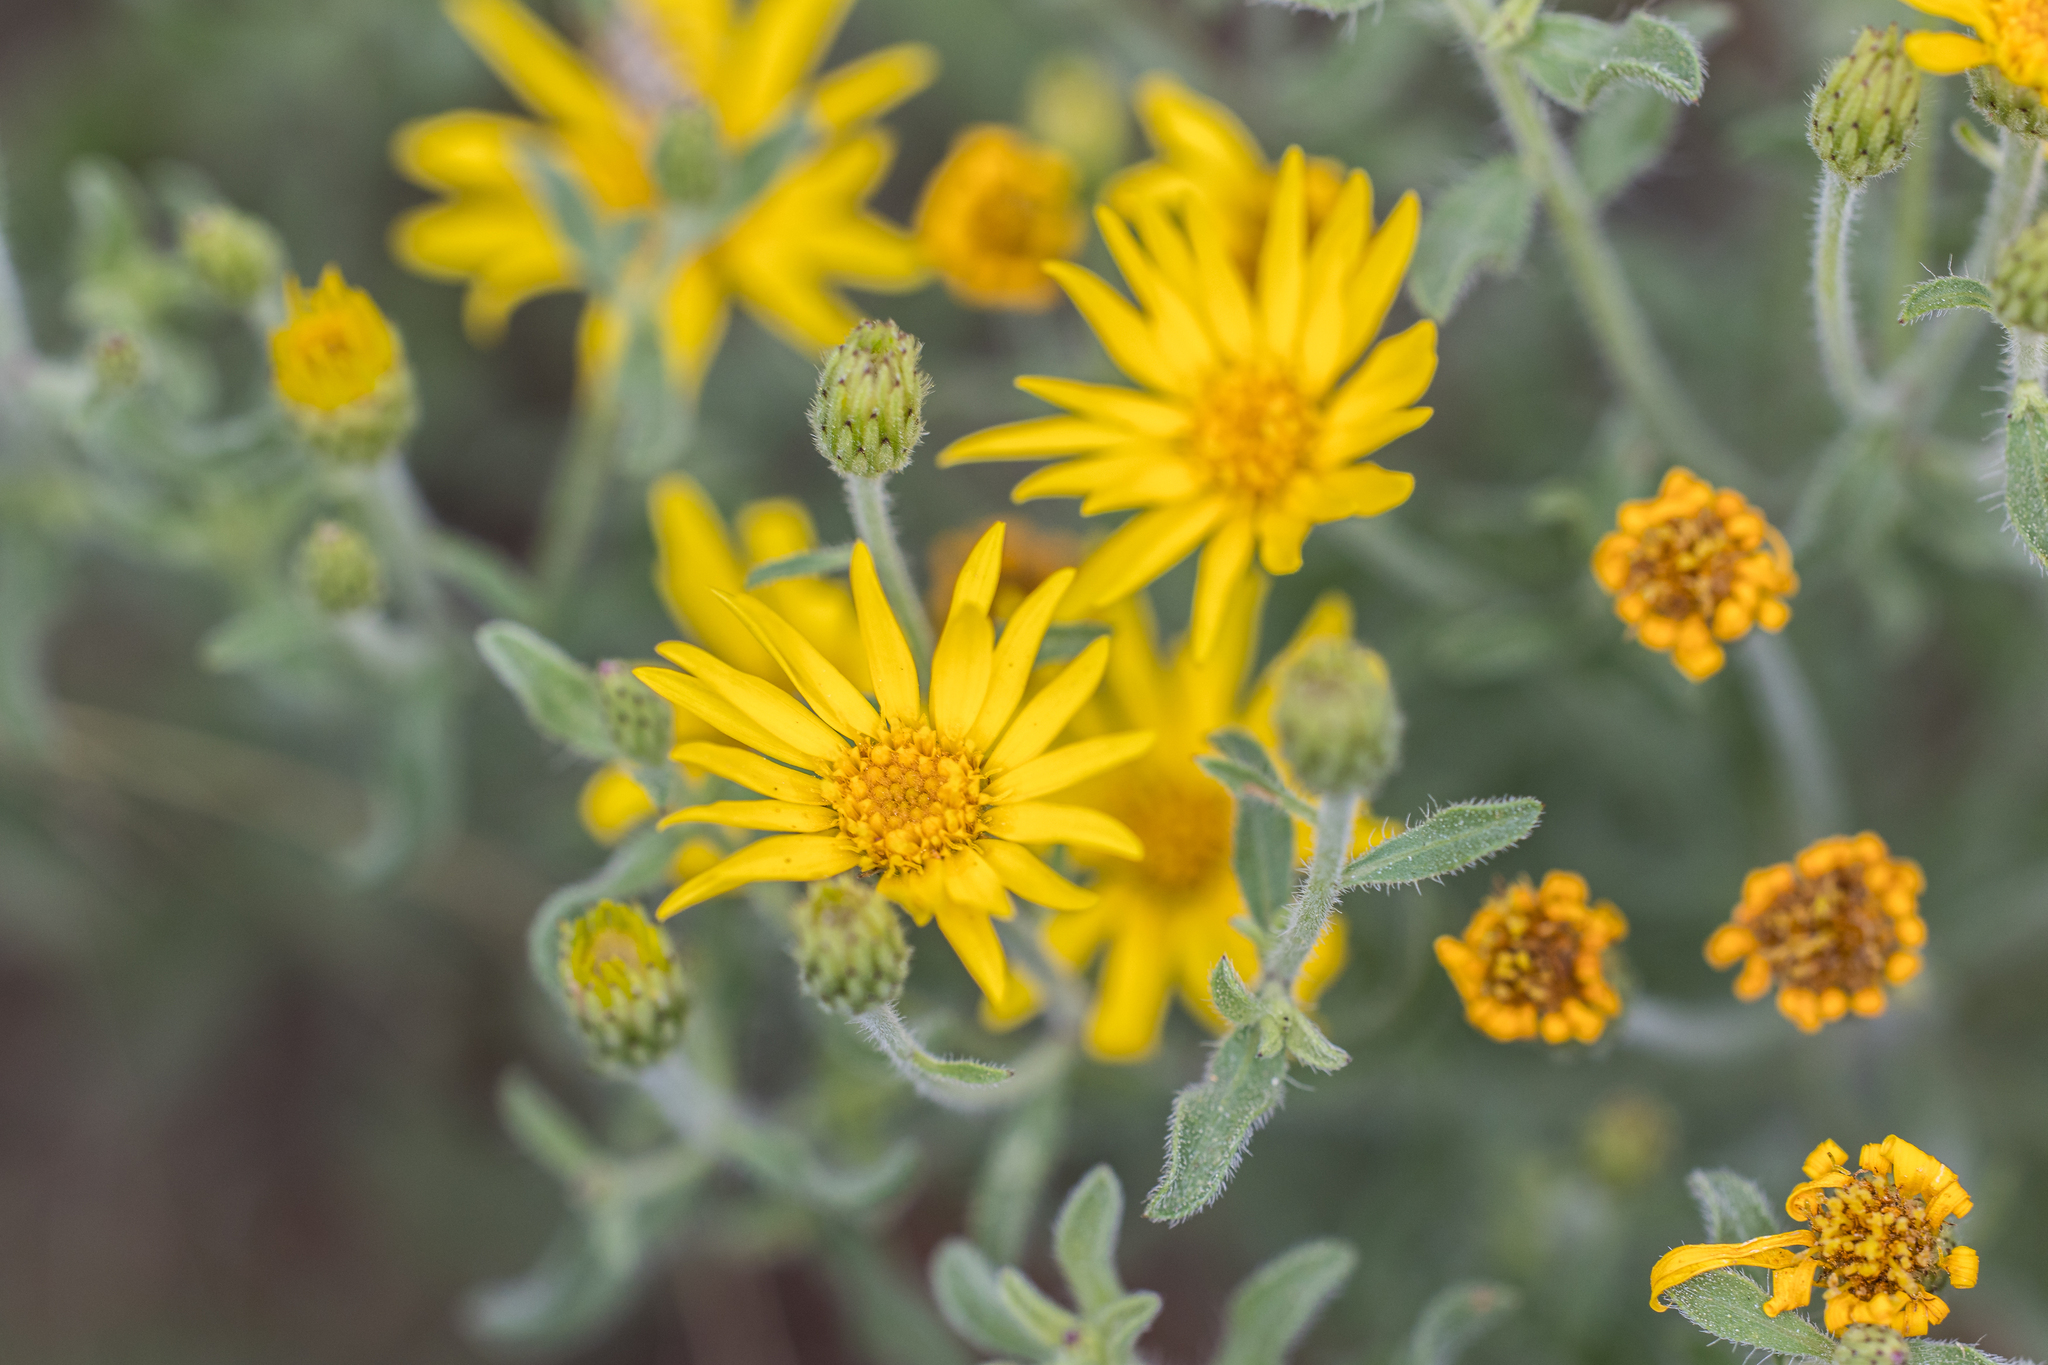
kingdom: Plantae
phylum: Tracheophyta
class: Magnoliopsida
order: Asterales
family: Asteraceae
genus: Heterotheca
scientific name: Heterotheca hirsutissima
